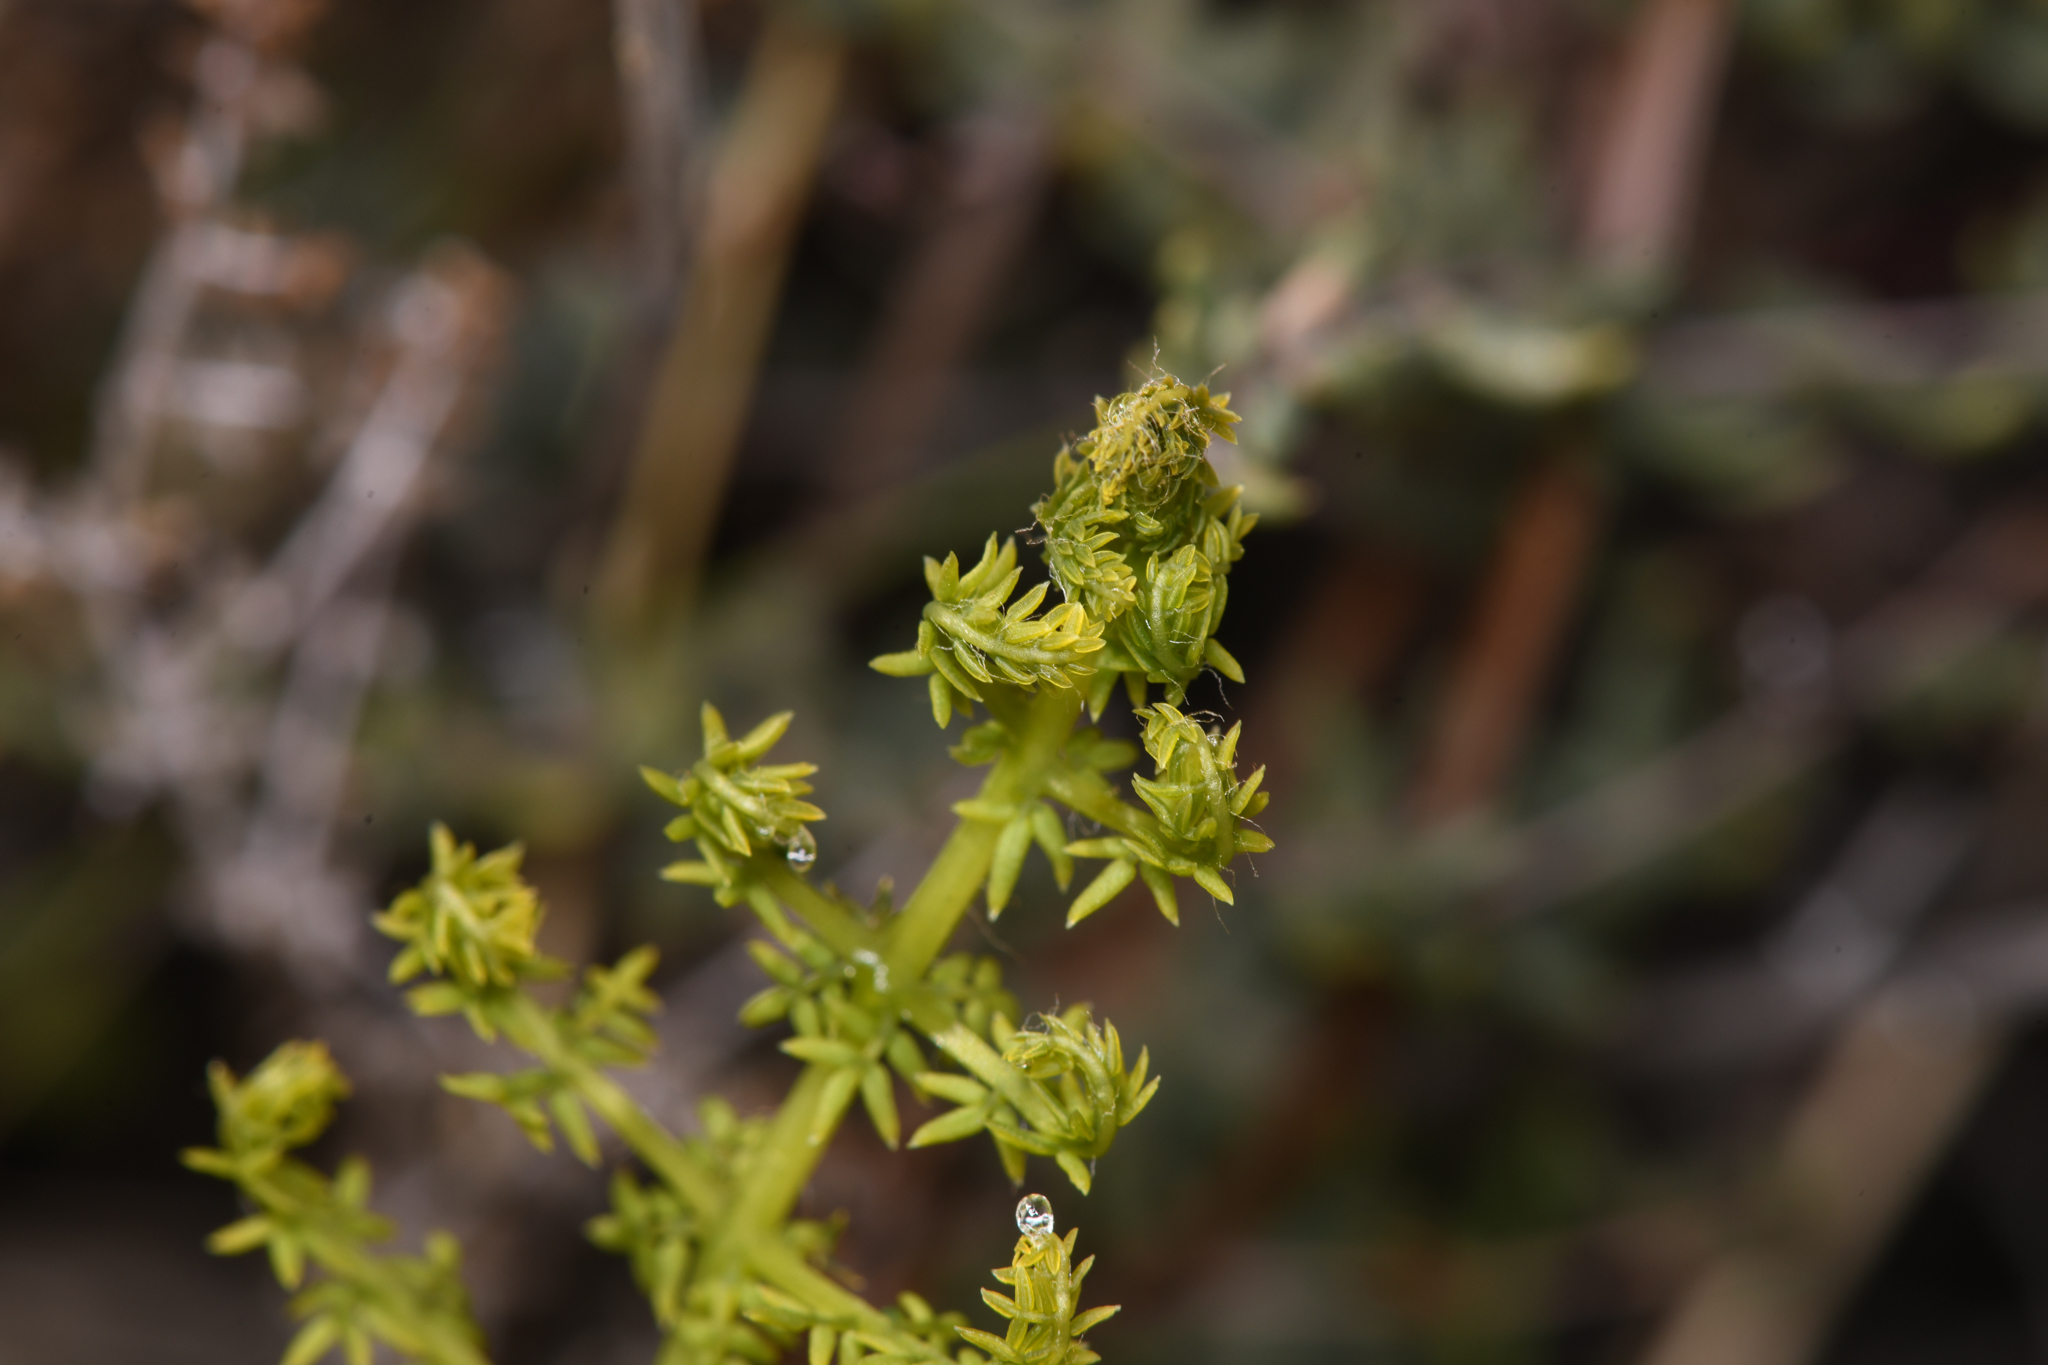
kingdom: Plantae
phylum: Tracheophyta
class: Polypodiopsida
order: Polypodiales
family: Pteridaceae
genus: Pellaea
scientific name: Pellaea mucronata
